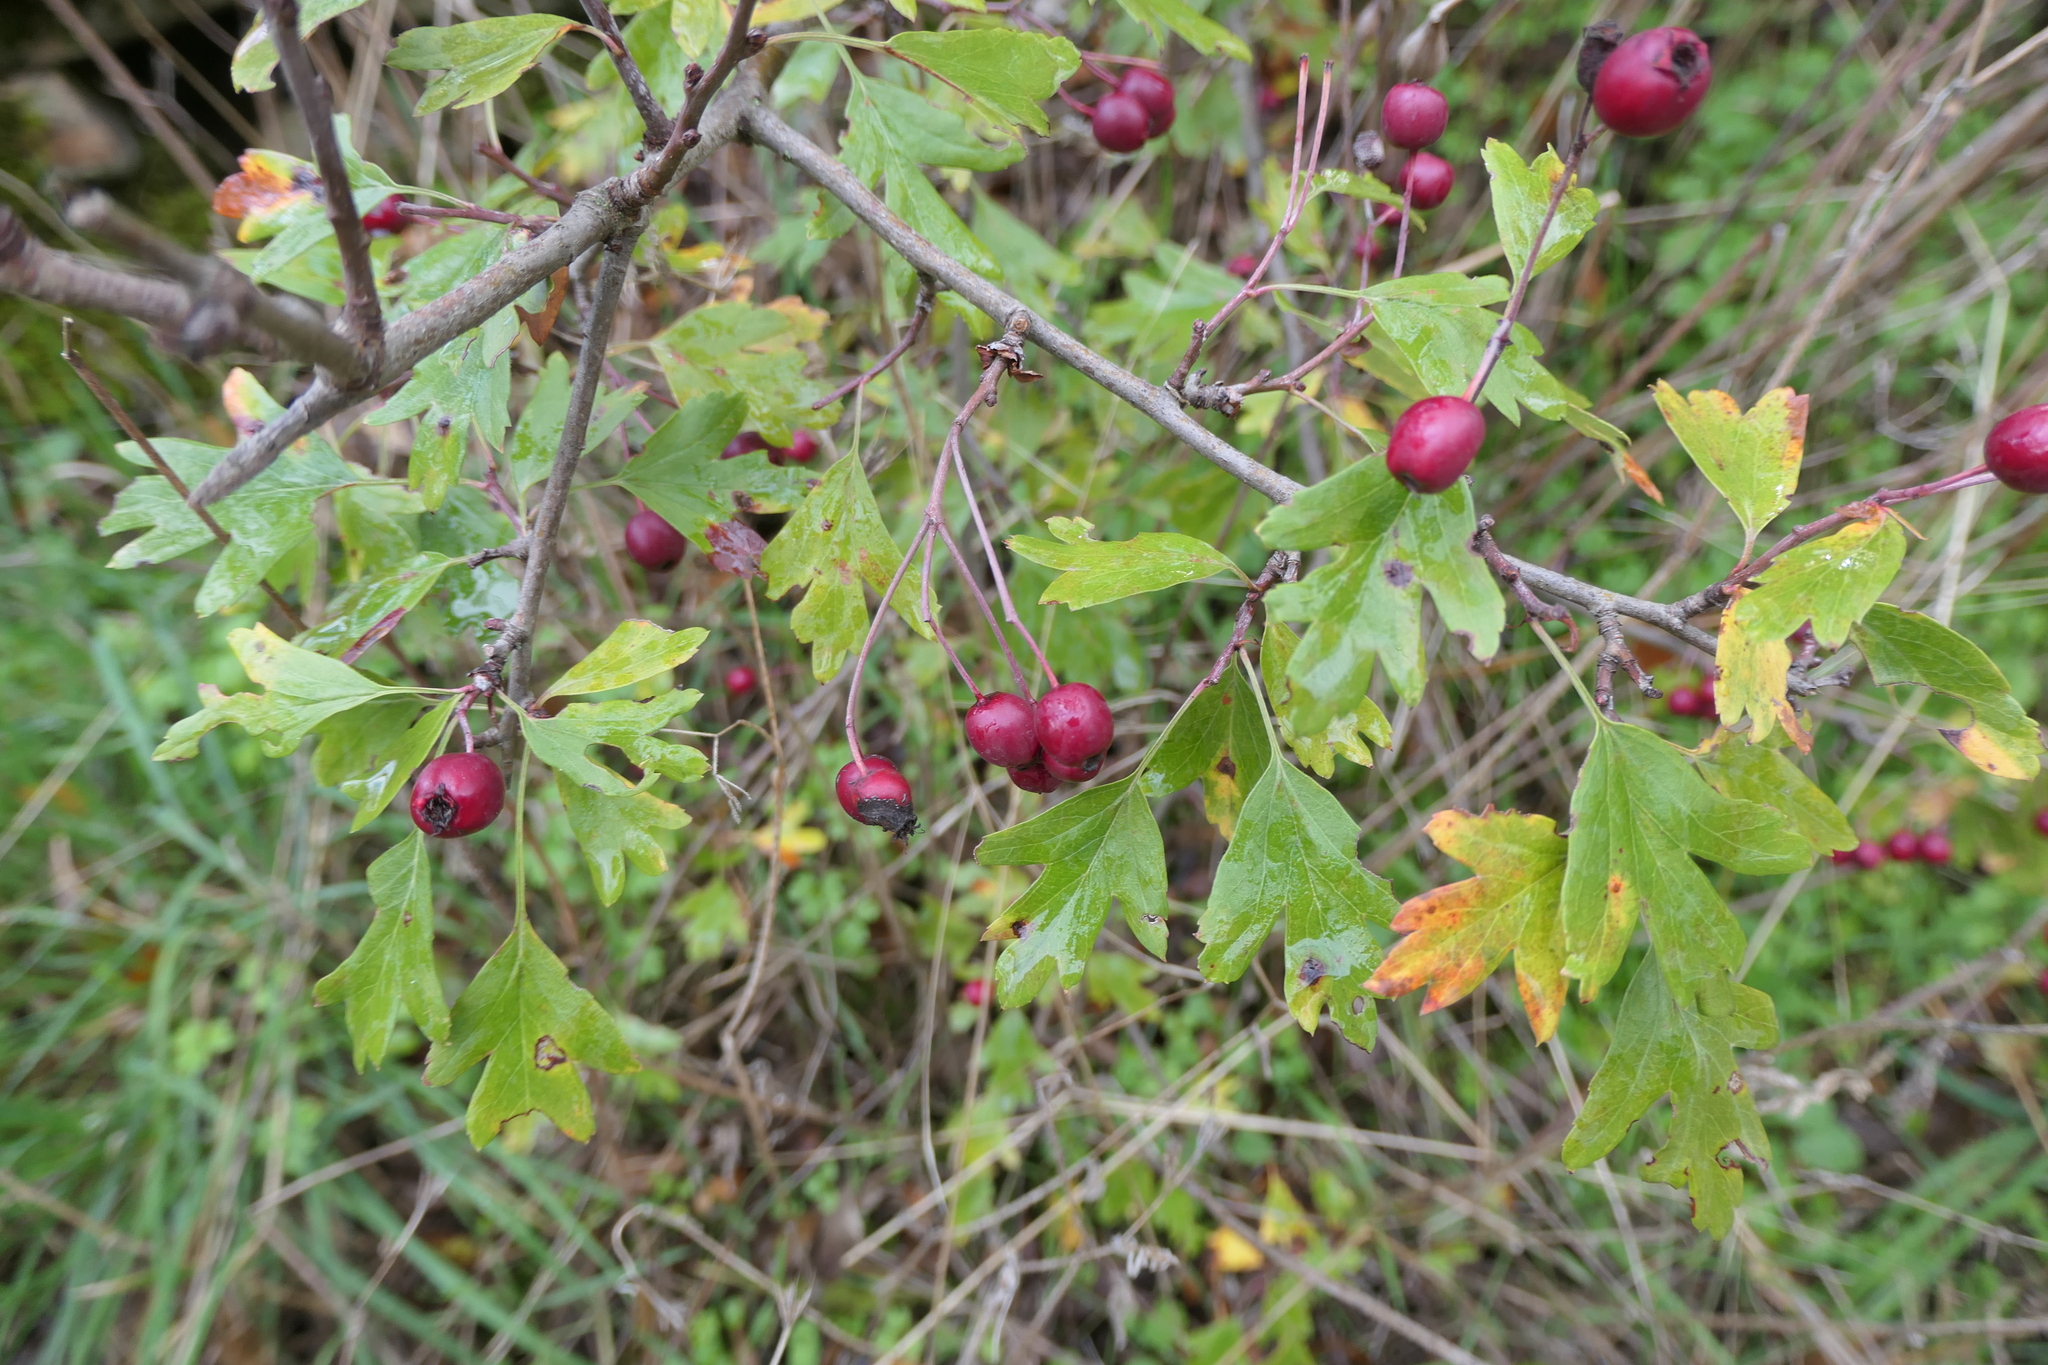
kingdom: Plantae
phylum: Tracheophyta
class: Magnoliopsida
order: Rosales
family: Rosaceae
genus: Crataegus
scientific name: Crataegus monogyna
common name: Hawthorn
